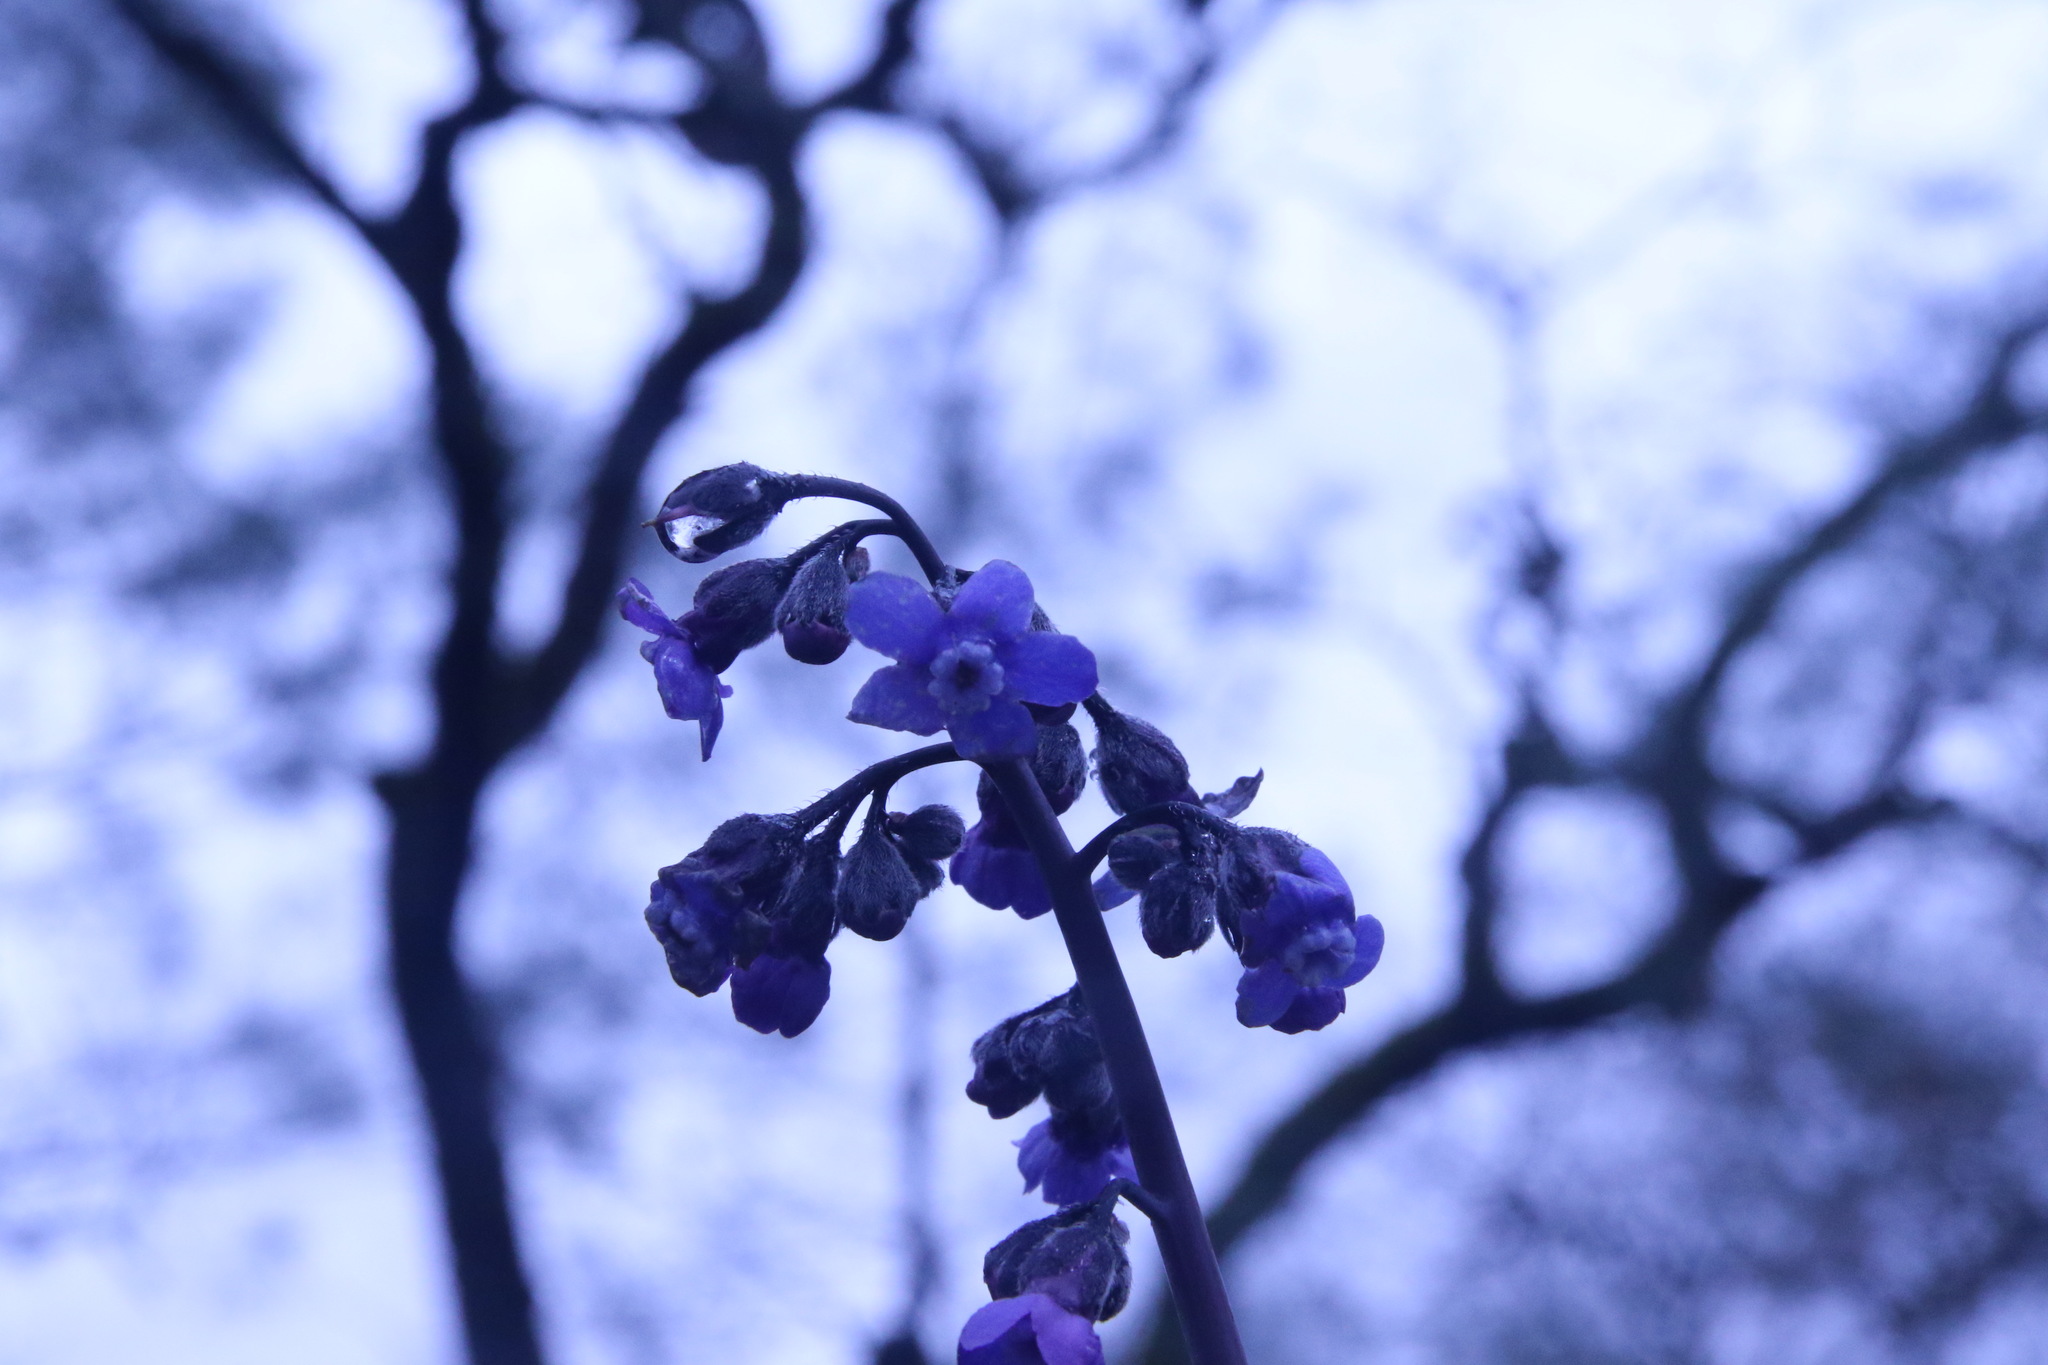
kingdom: Plantae
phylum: Tracheophyta
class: Magnoliopsida
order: Boraginales
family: Boraginaceae
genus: Adelinia
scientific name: Adelinia grande
